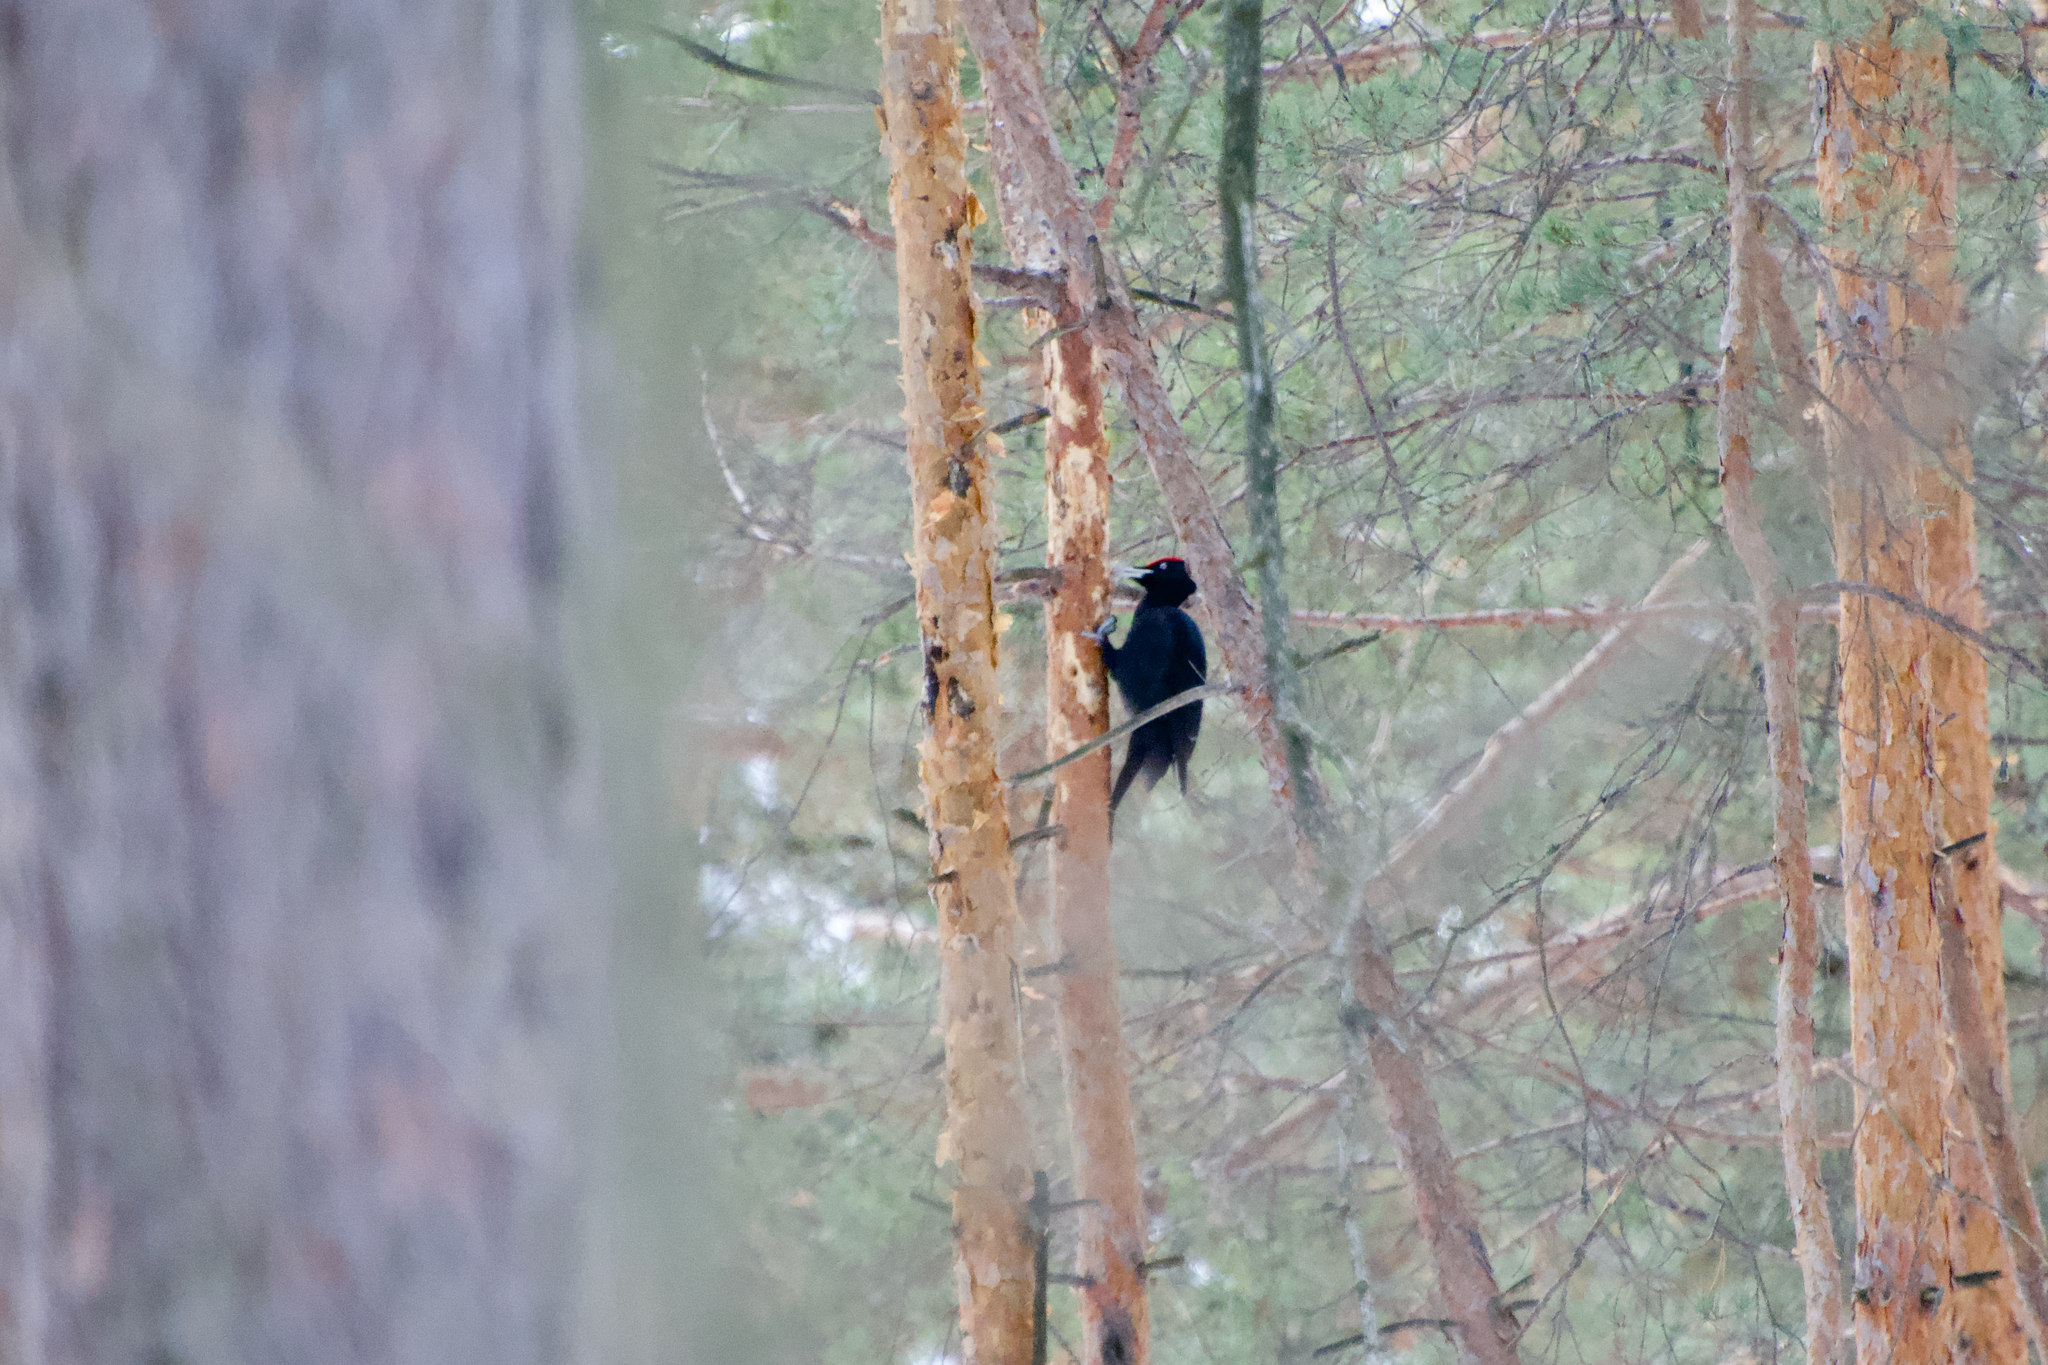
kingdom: Animalia
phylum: Chordata
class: Aves
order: Piciformes
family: Picidae
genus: Dryocopus
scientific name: Dryocopus martius
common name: Black woodpecker
